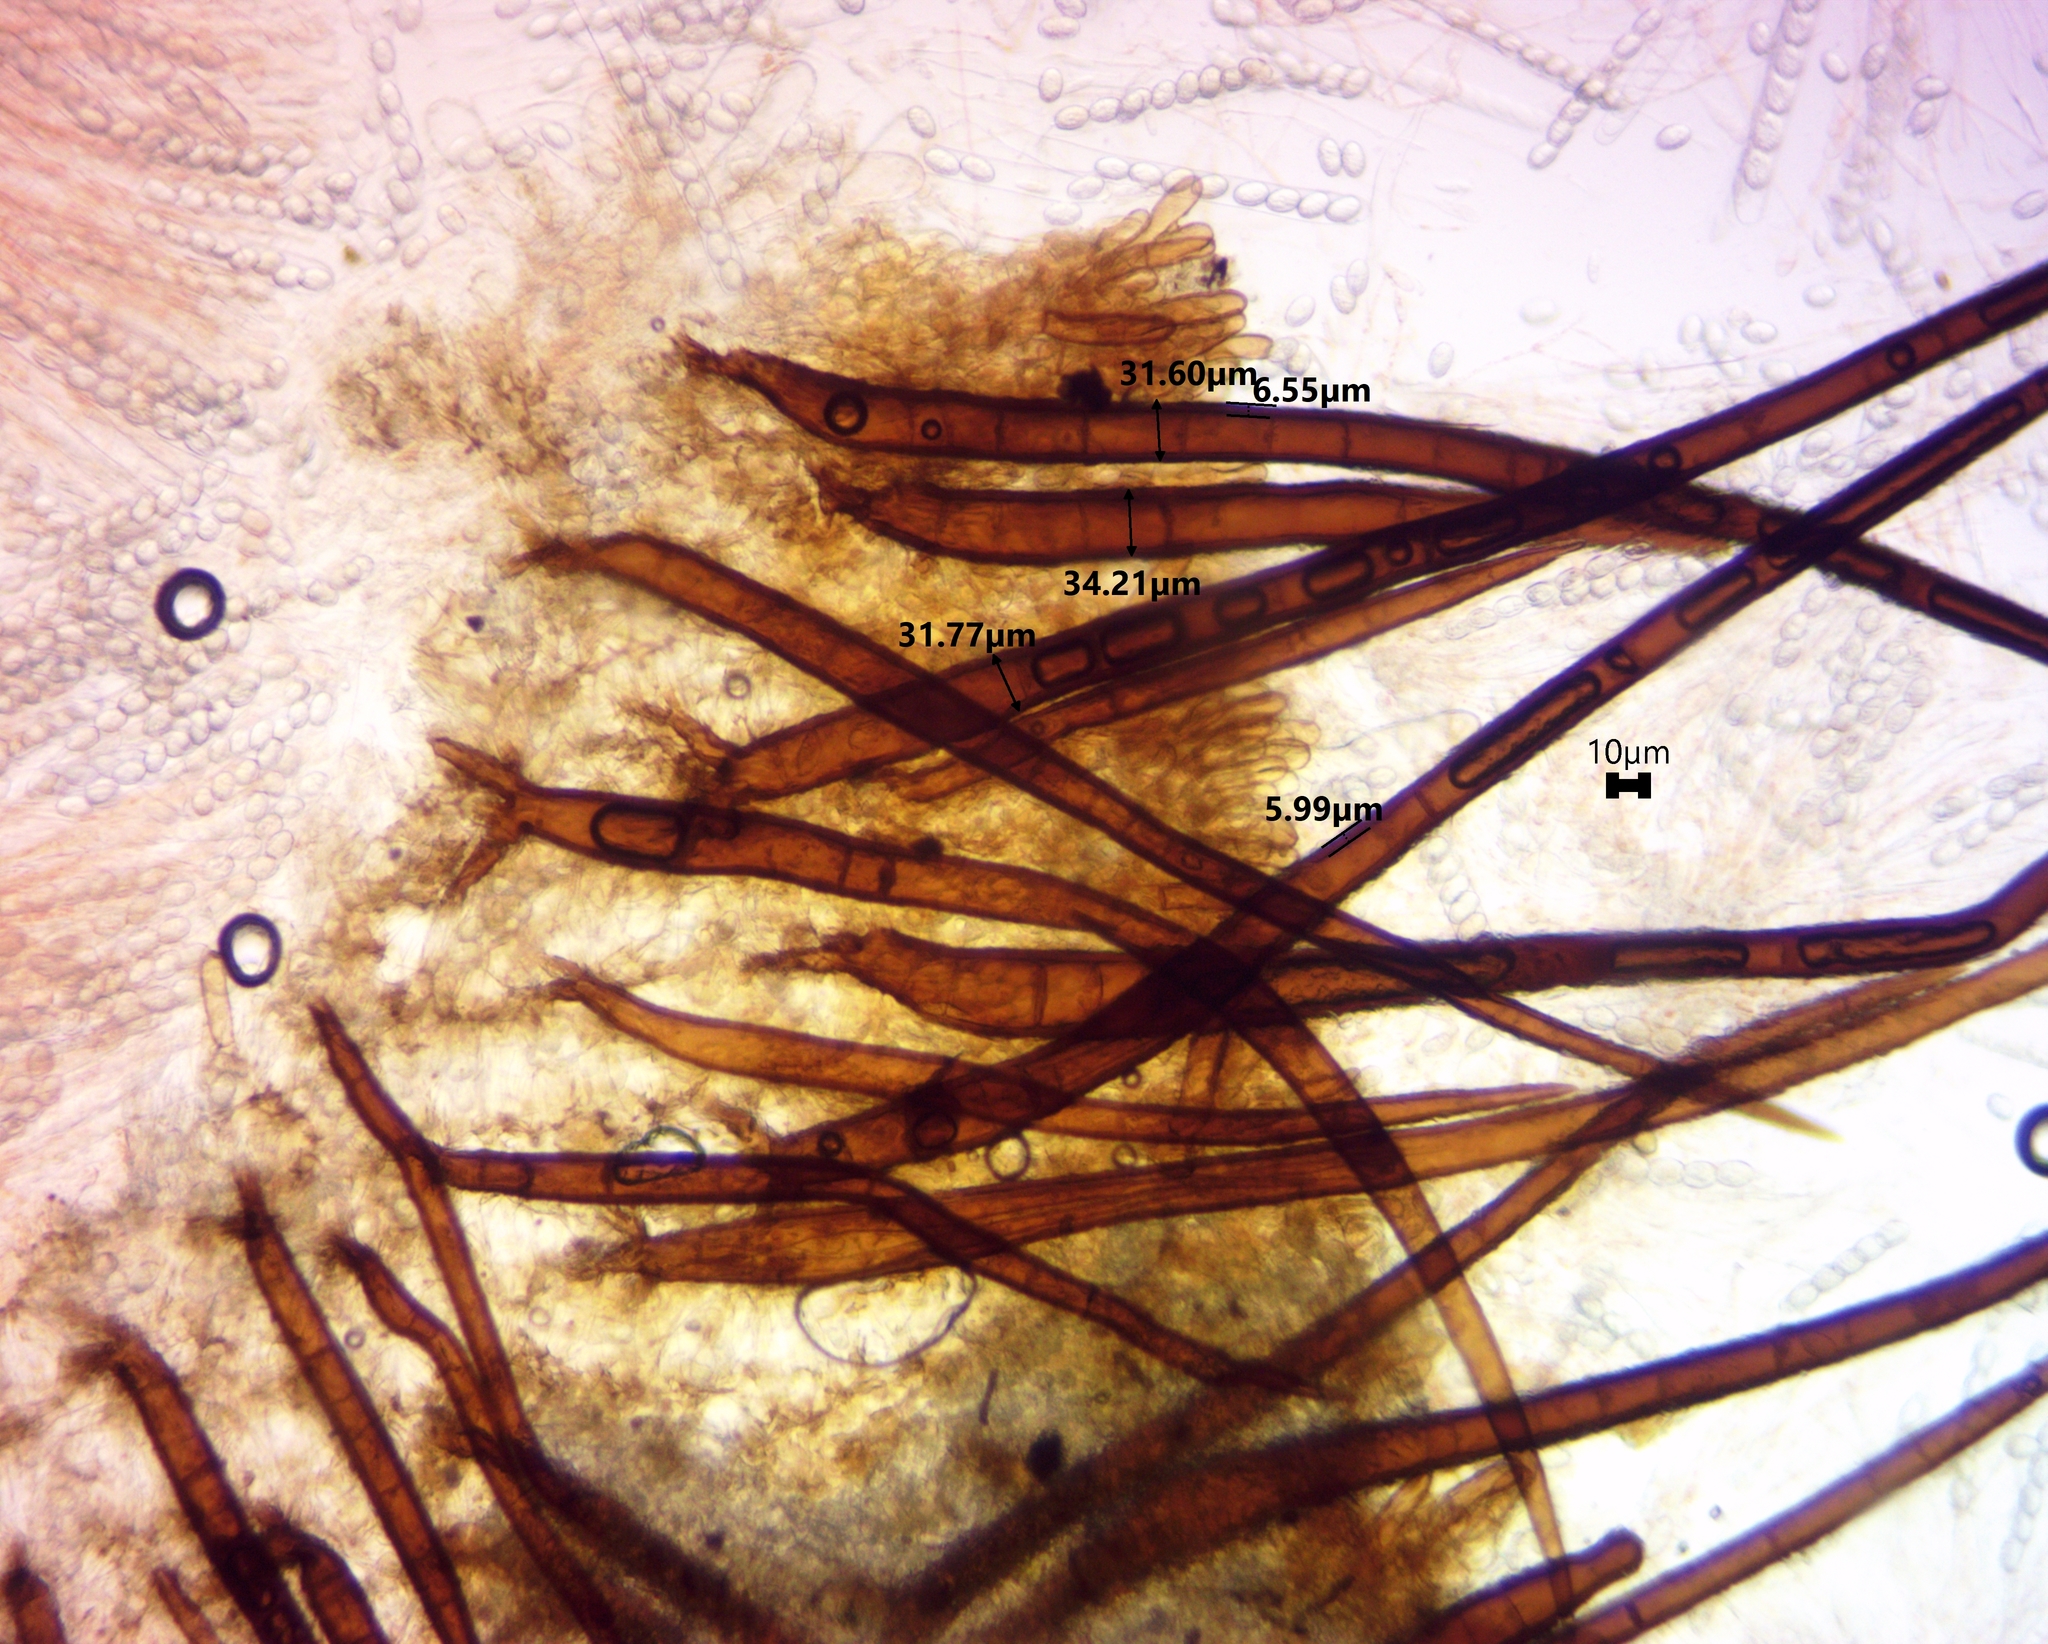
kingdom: Fungi
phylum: Ascomycota
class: Pezizomycetes
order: Pezizales
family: Pyronemataceae
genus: Scutellinia
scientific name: Scutellinia olivascens
